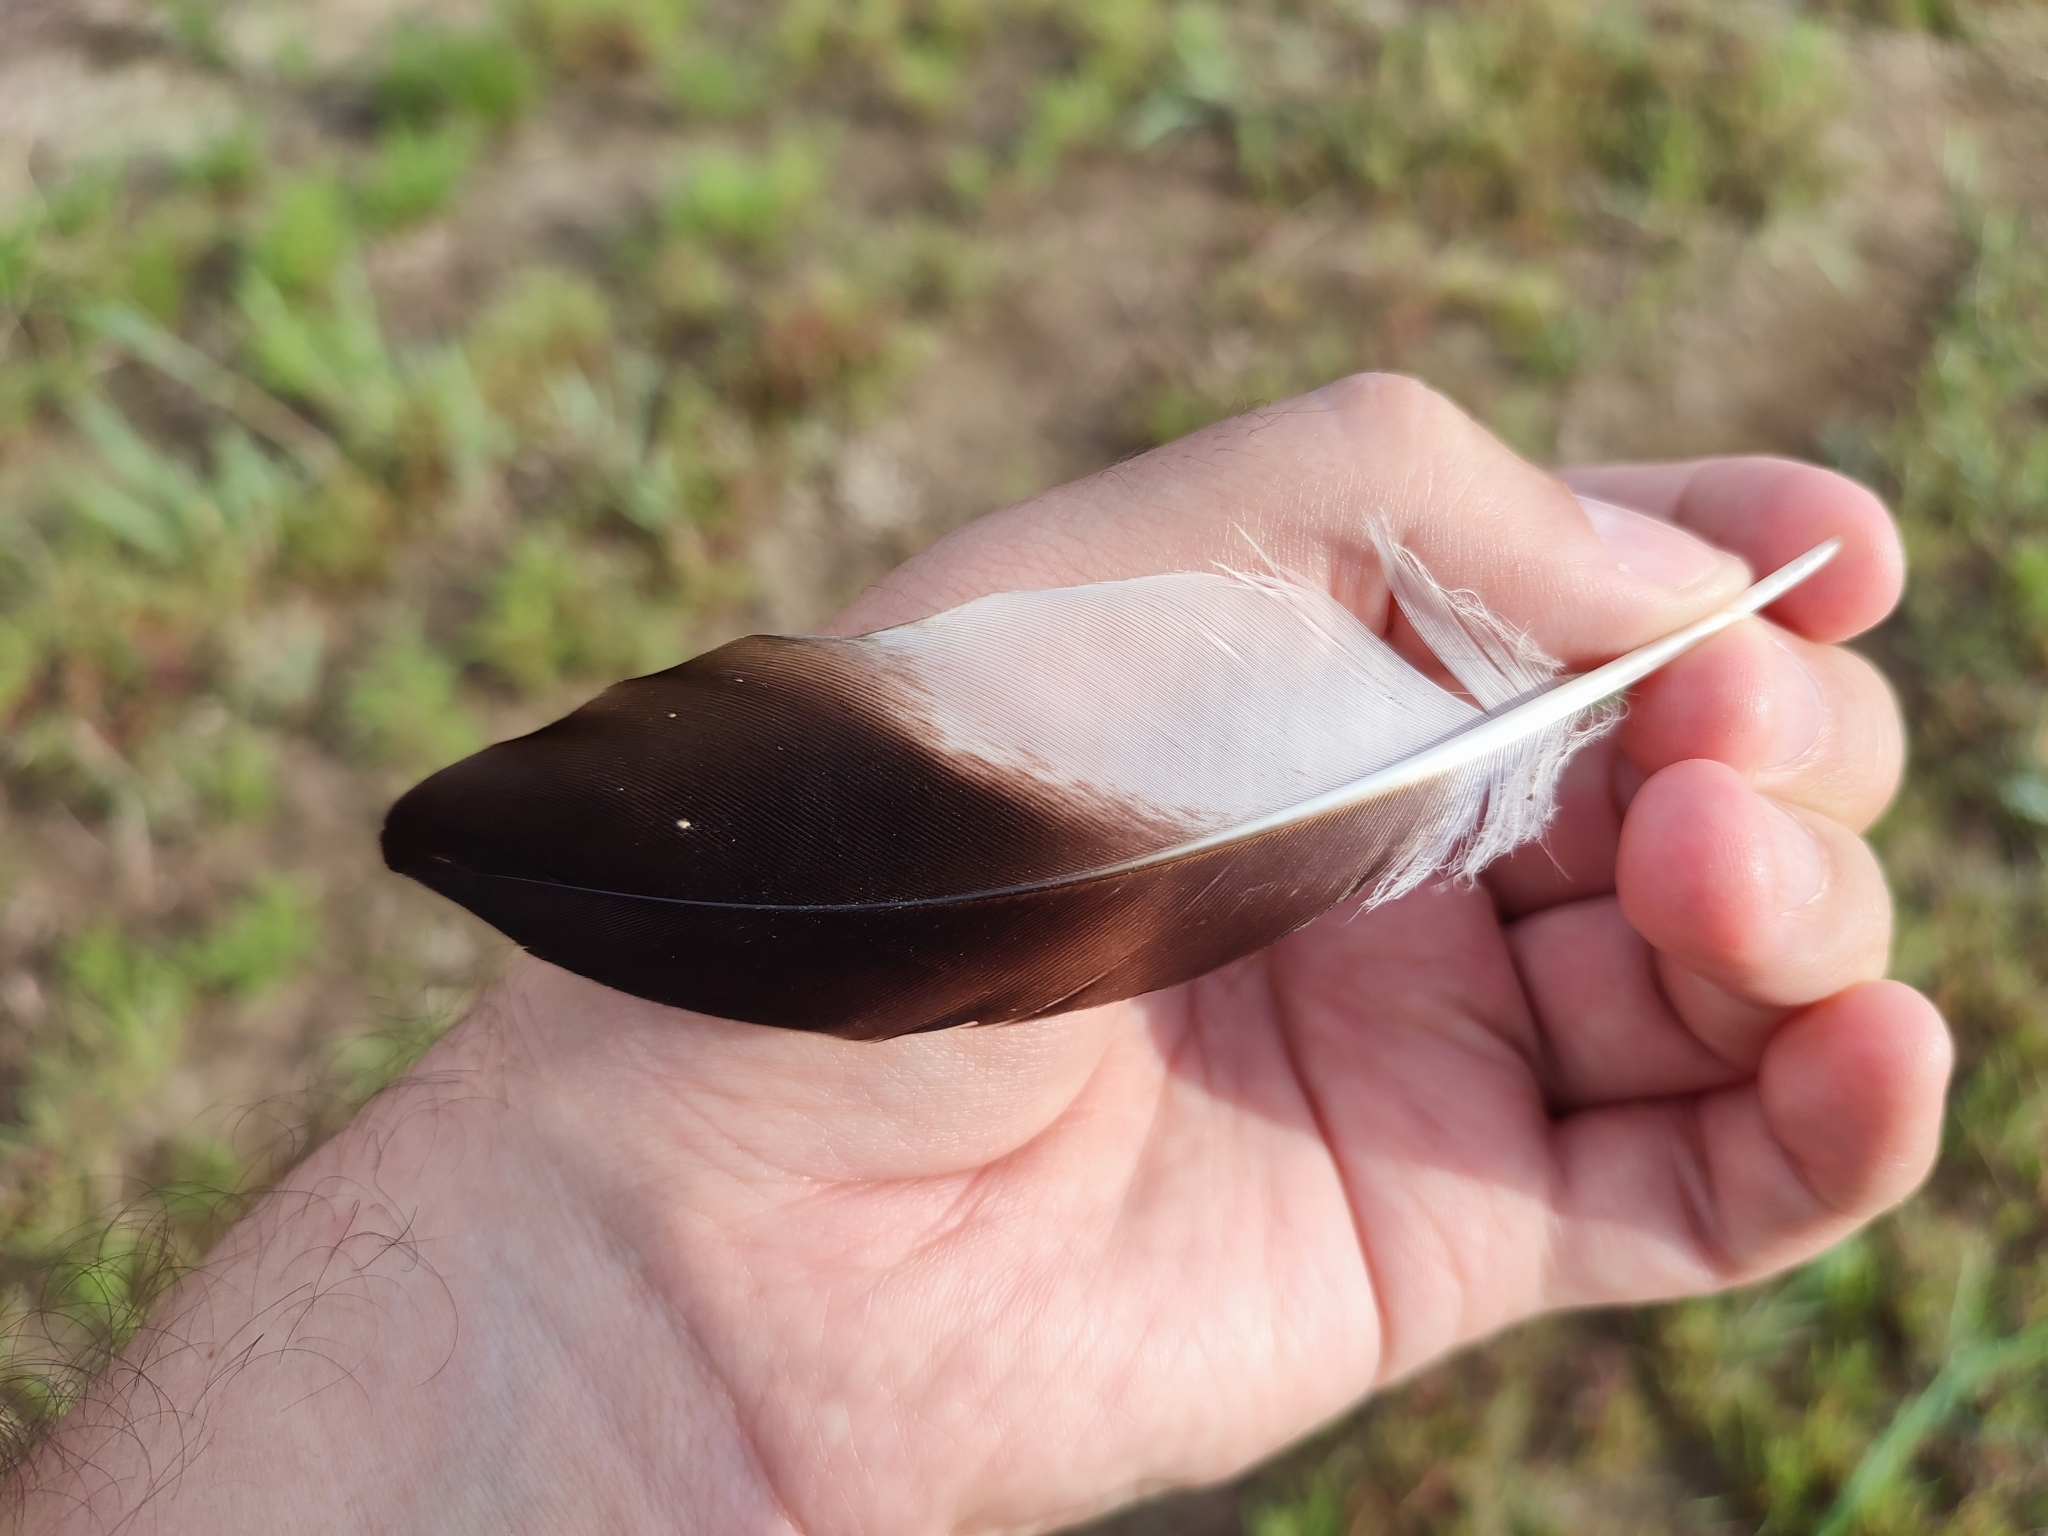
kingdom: Animalia
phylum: Chordata
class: Aves
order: Charadriiformes
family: Charadriidae
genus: Vanellus
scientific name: Vanellus vanellus
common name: Northern lapwing
